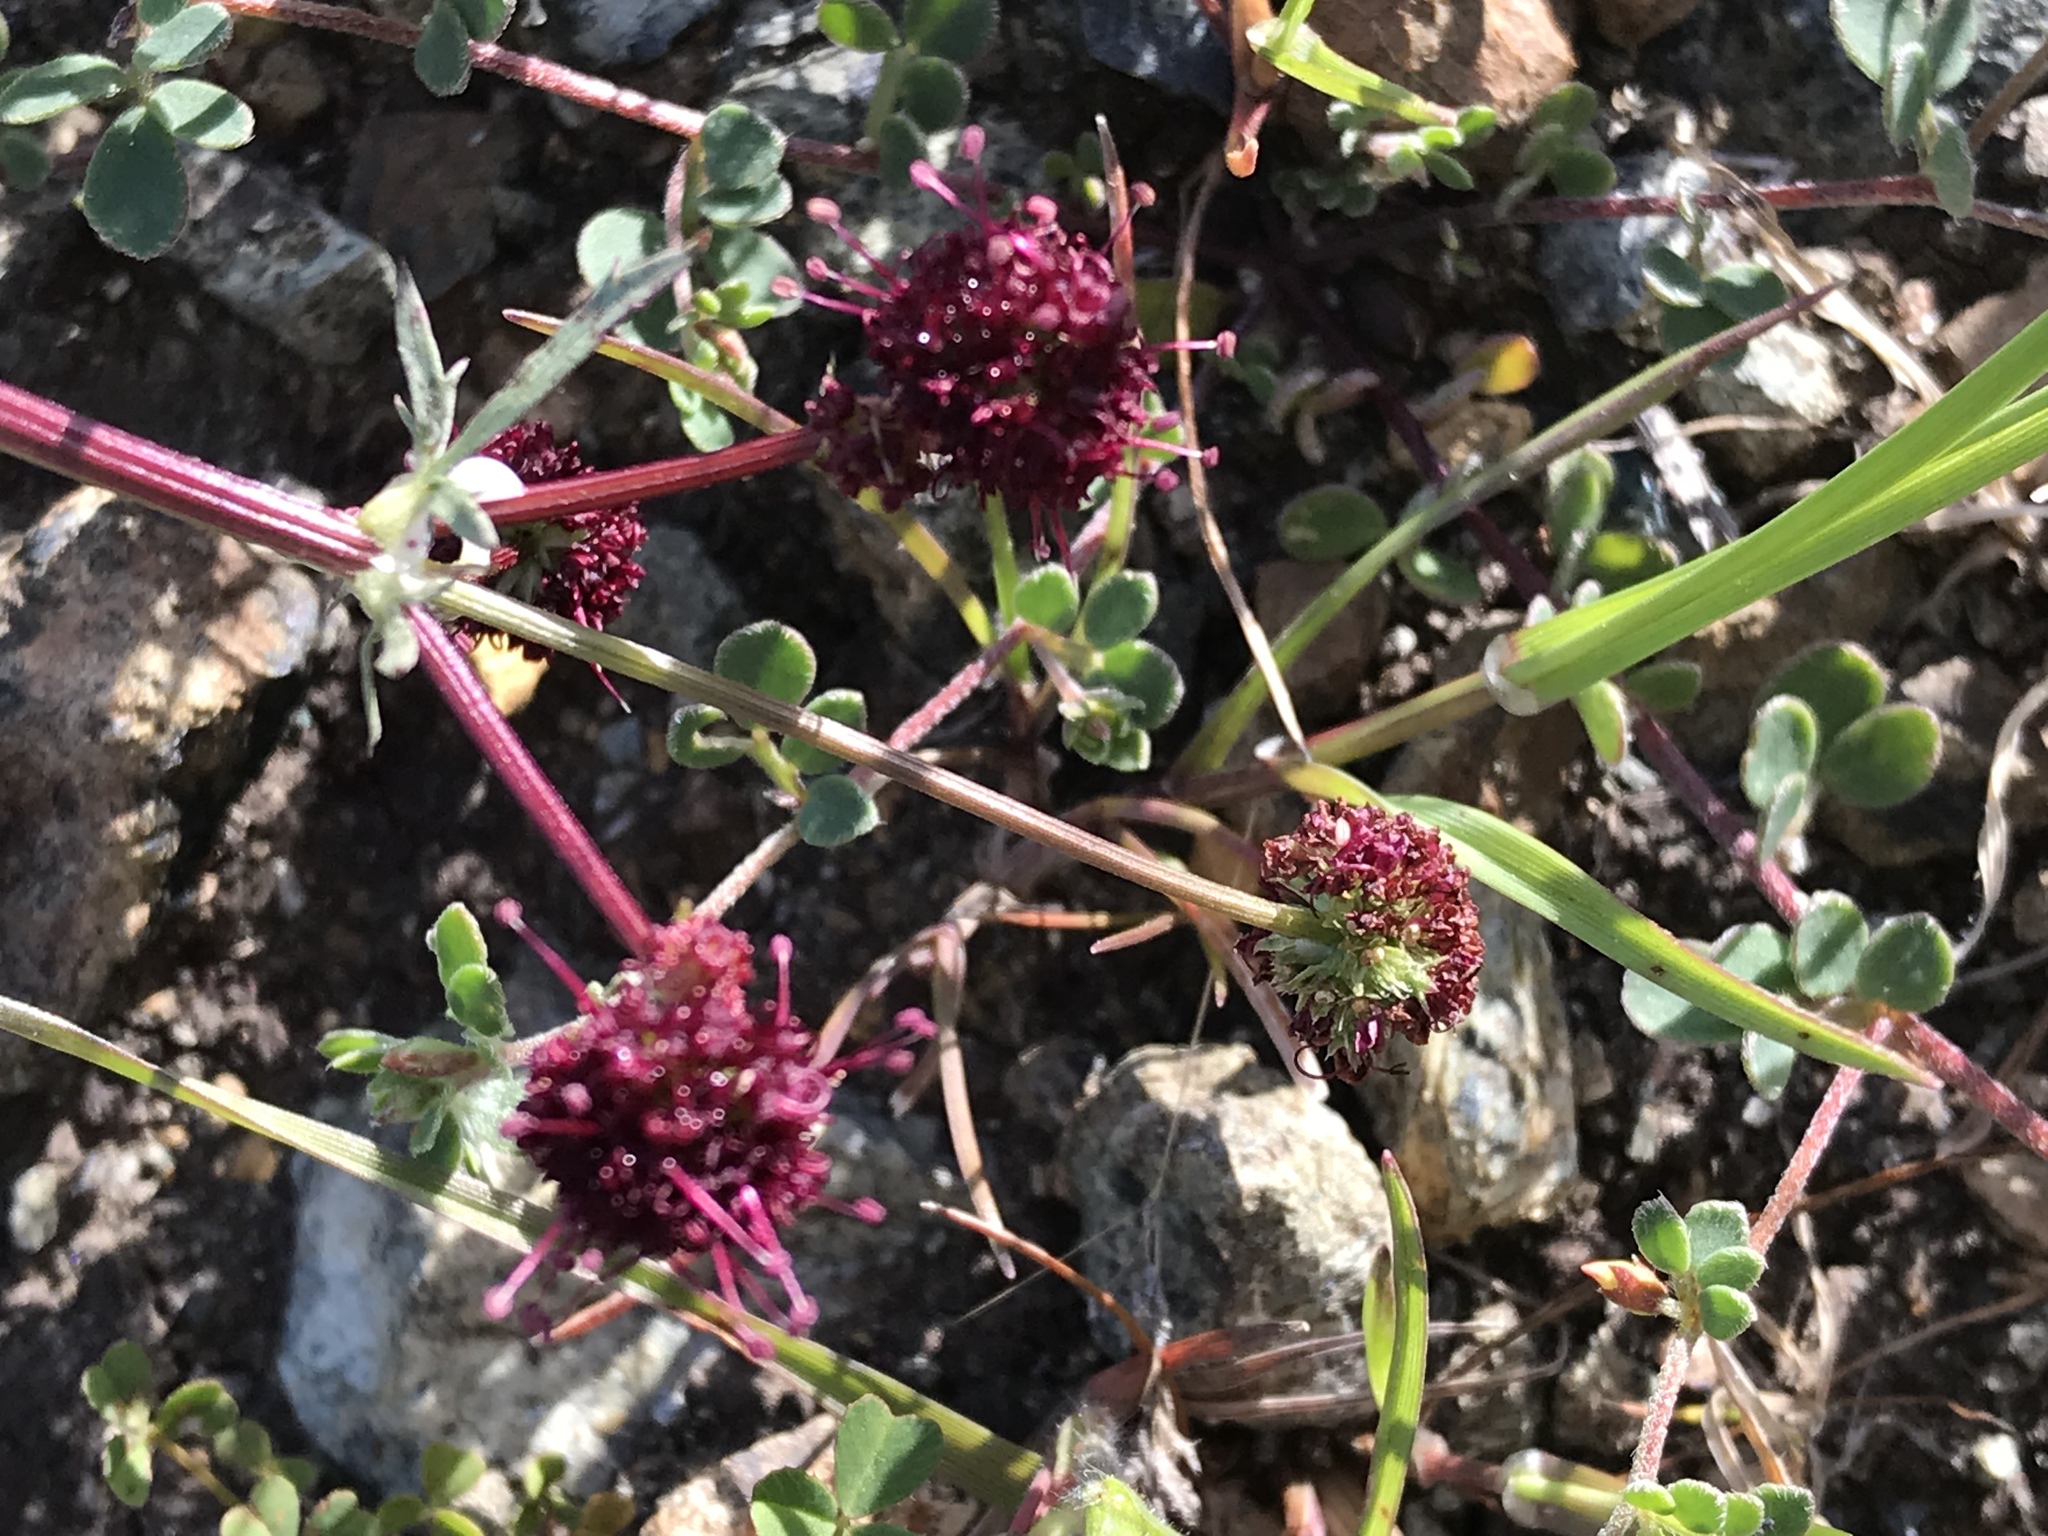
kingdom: Plantae
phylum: Tracheophyta
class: Magnoliopsida
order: Apiales
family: Apiaceae
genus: Sanicula
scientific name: Sanicula bipinnatifida
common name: Shoe-buttons
